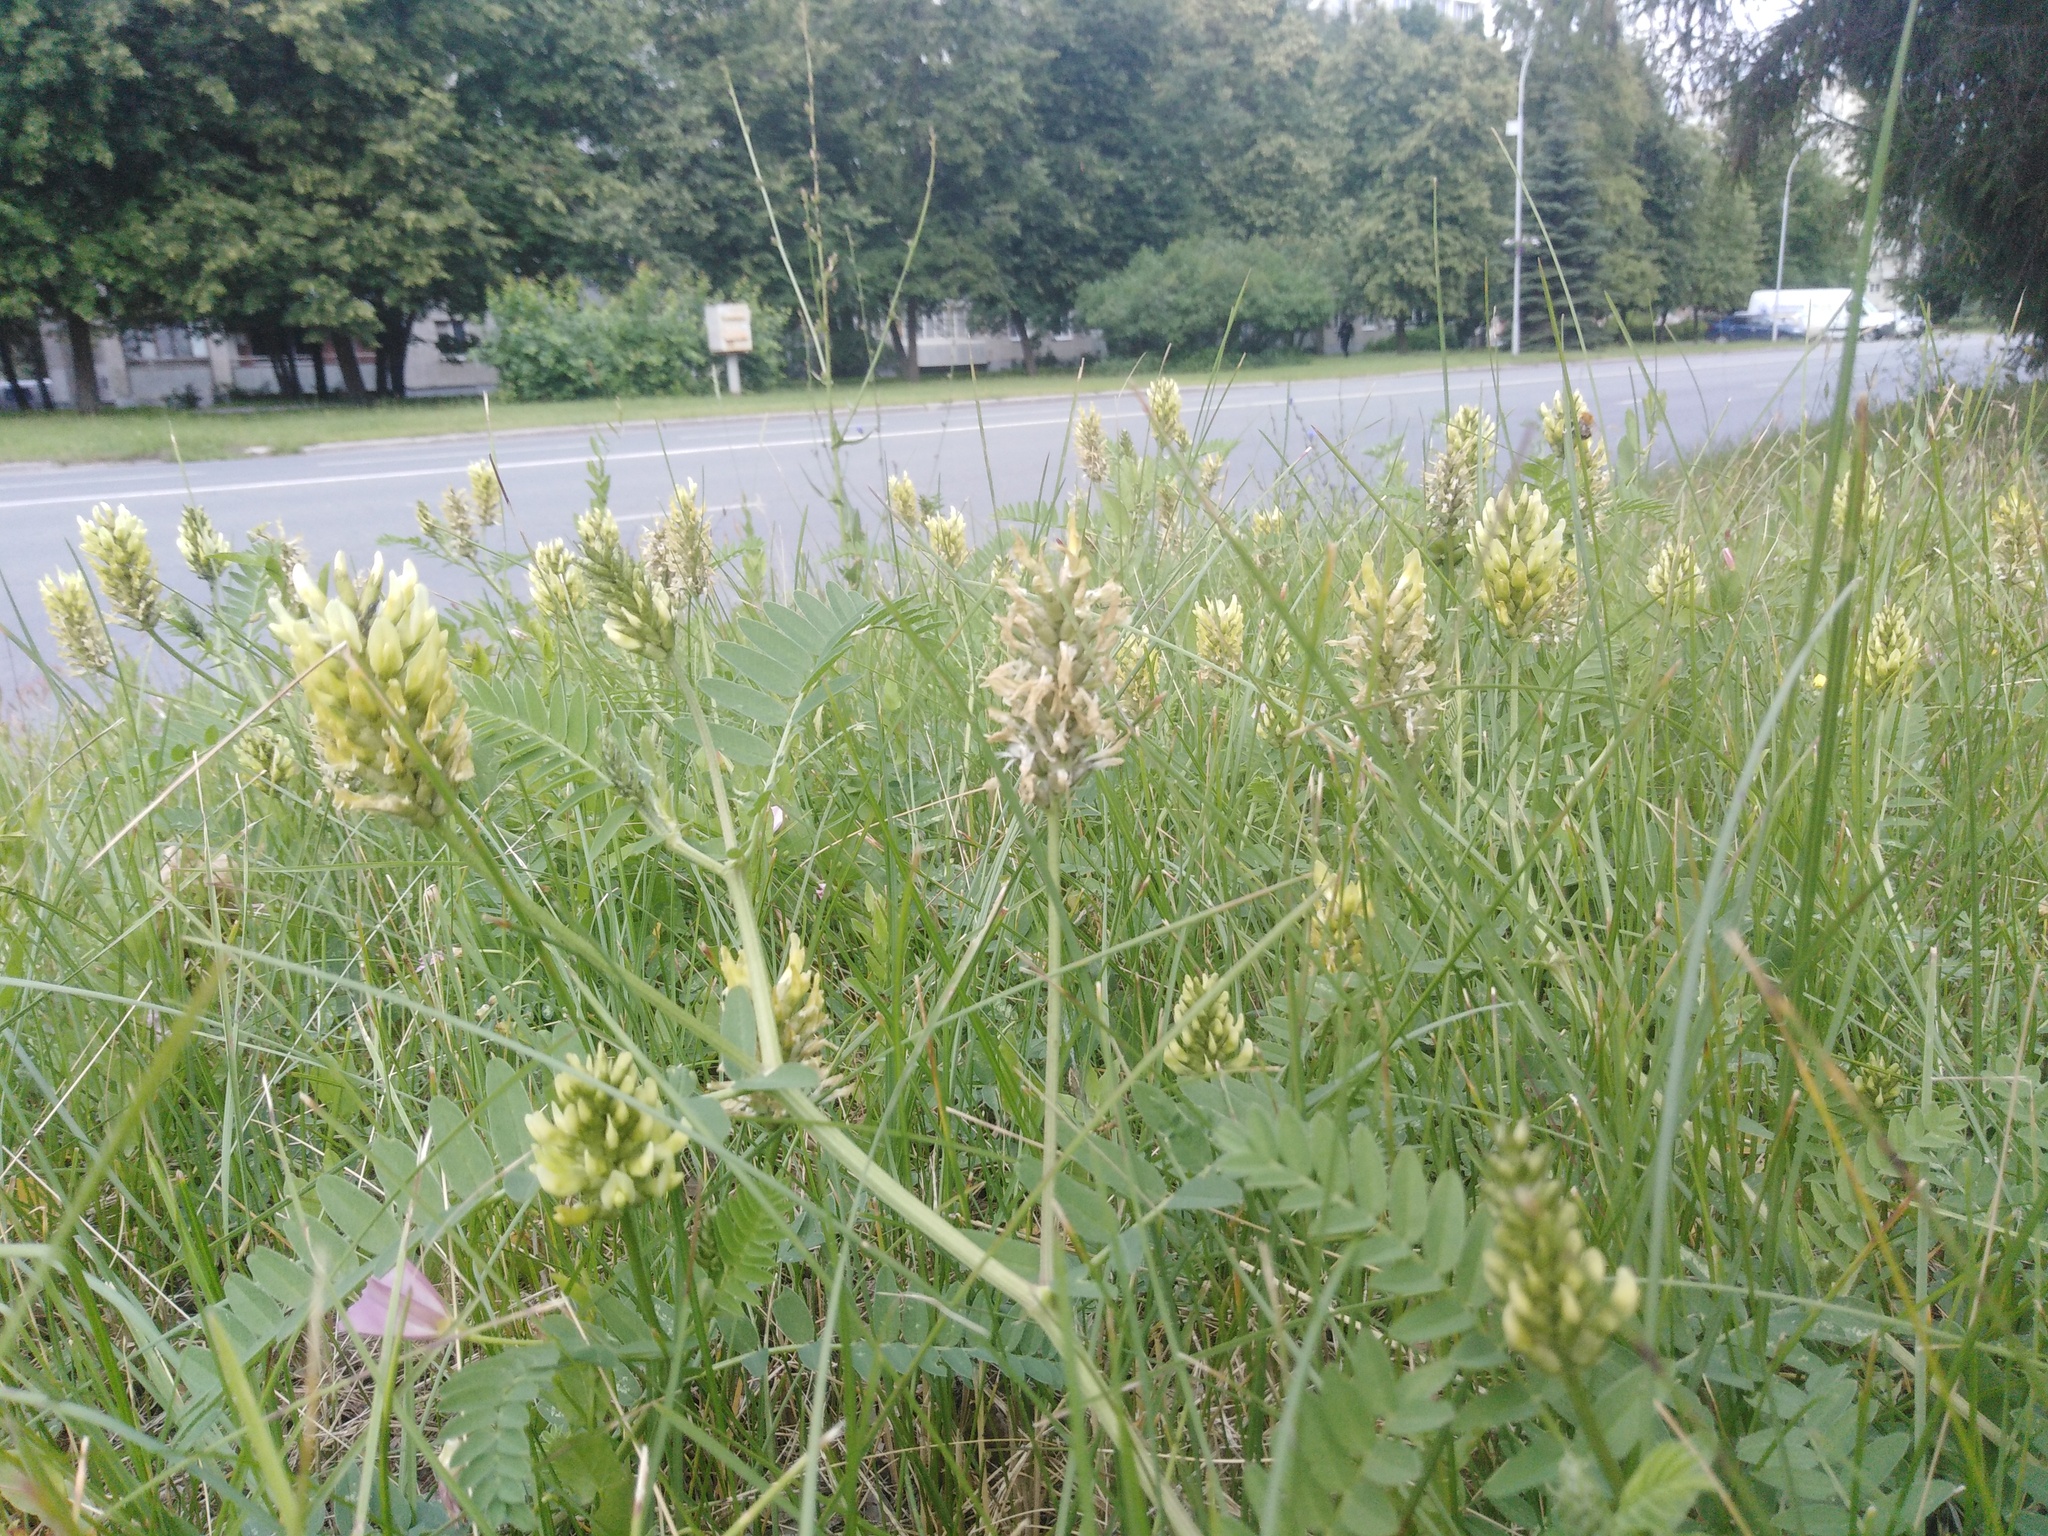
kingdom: Plantae
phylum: Tracheophyta
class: Magnoliopsida
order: Fabales
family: Fabaceae
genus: Astragalus
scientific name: Astragalus cicer
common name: Chick-pea milk-vetch
